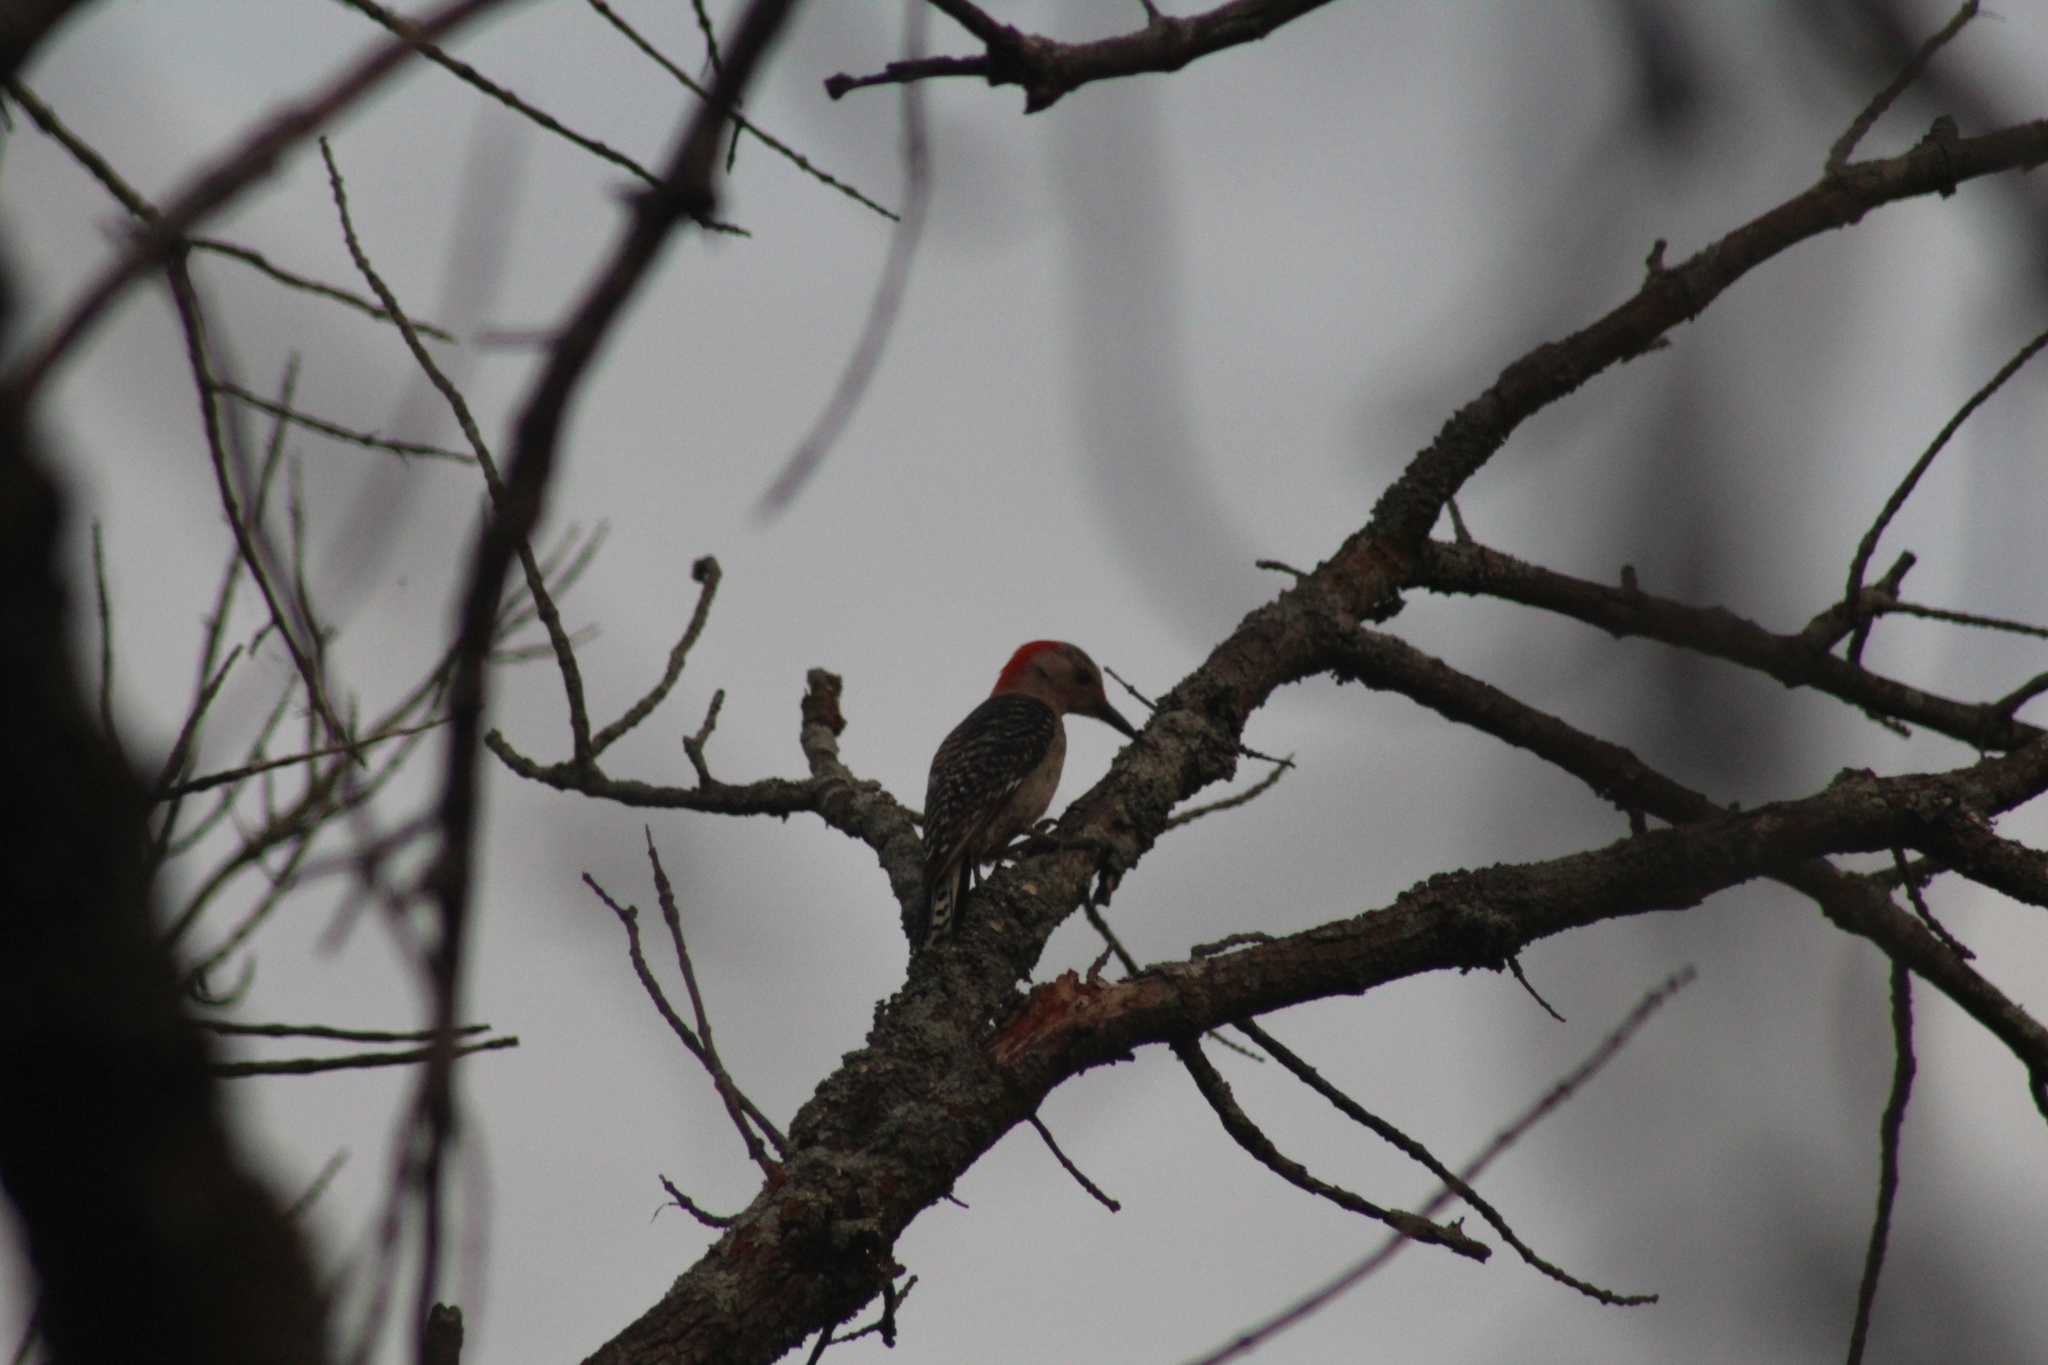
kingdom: Animalia
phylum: Chordata
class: Aves
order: Piciformes
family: Picidae
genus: Melanerpes
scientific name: Melanerpes carolinus
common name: Red-bellied woodpecker
